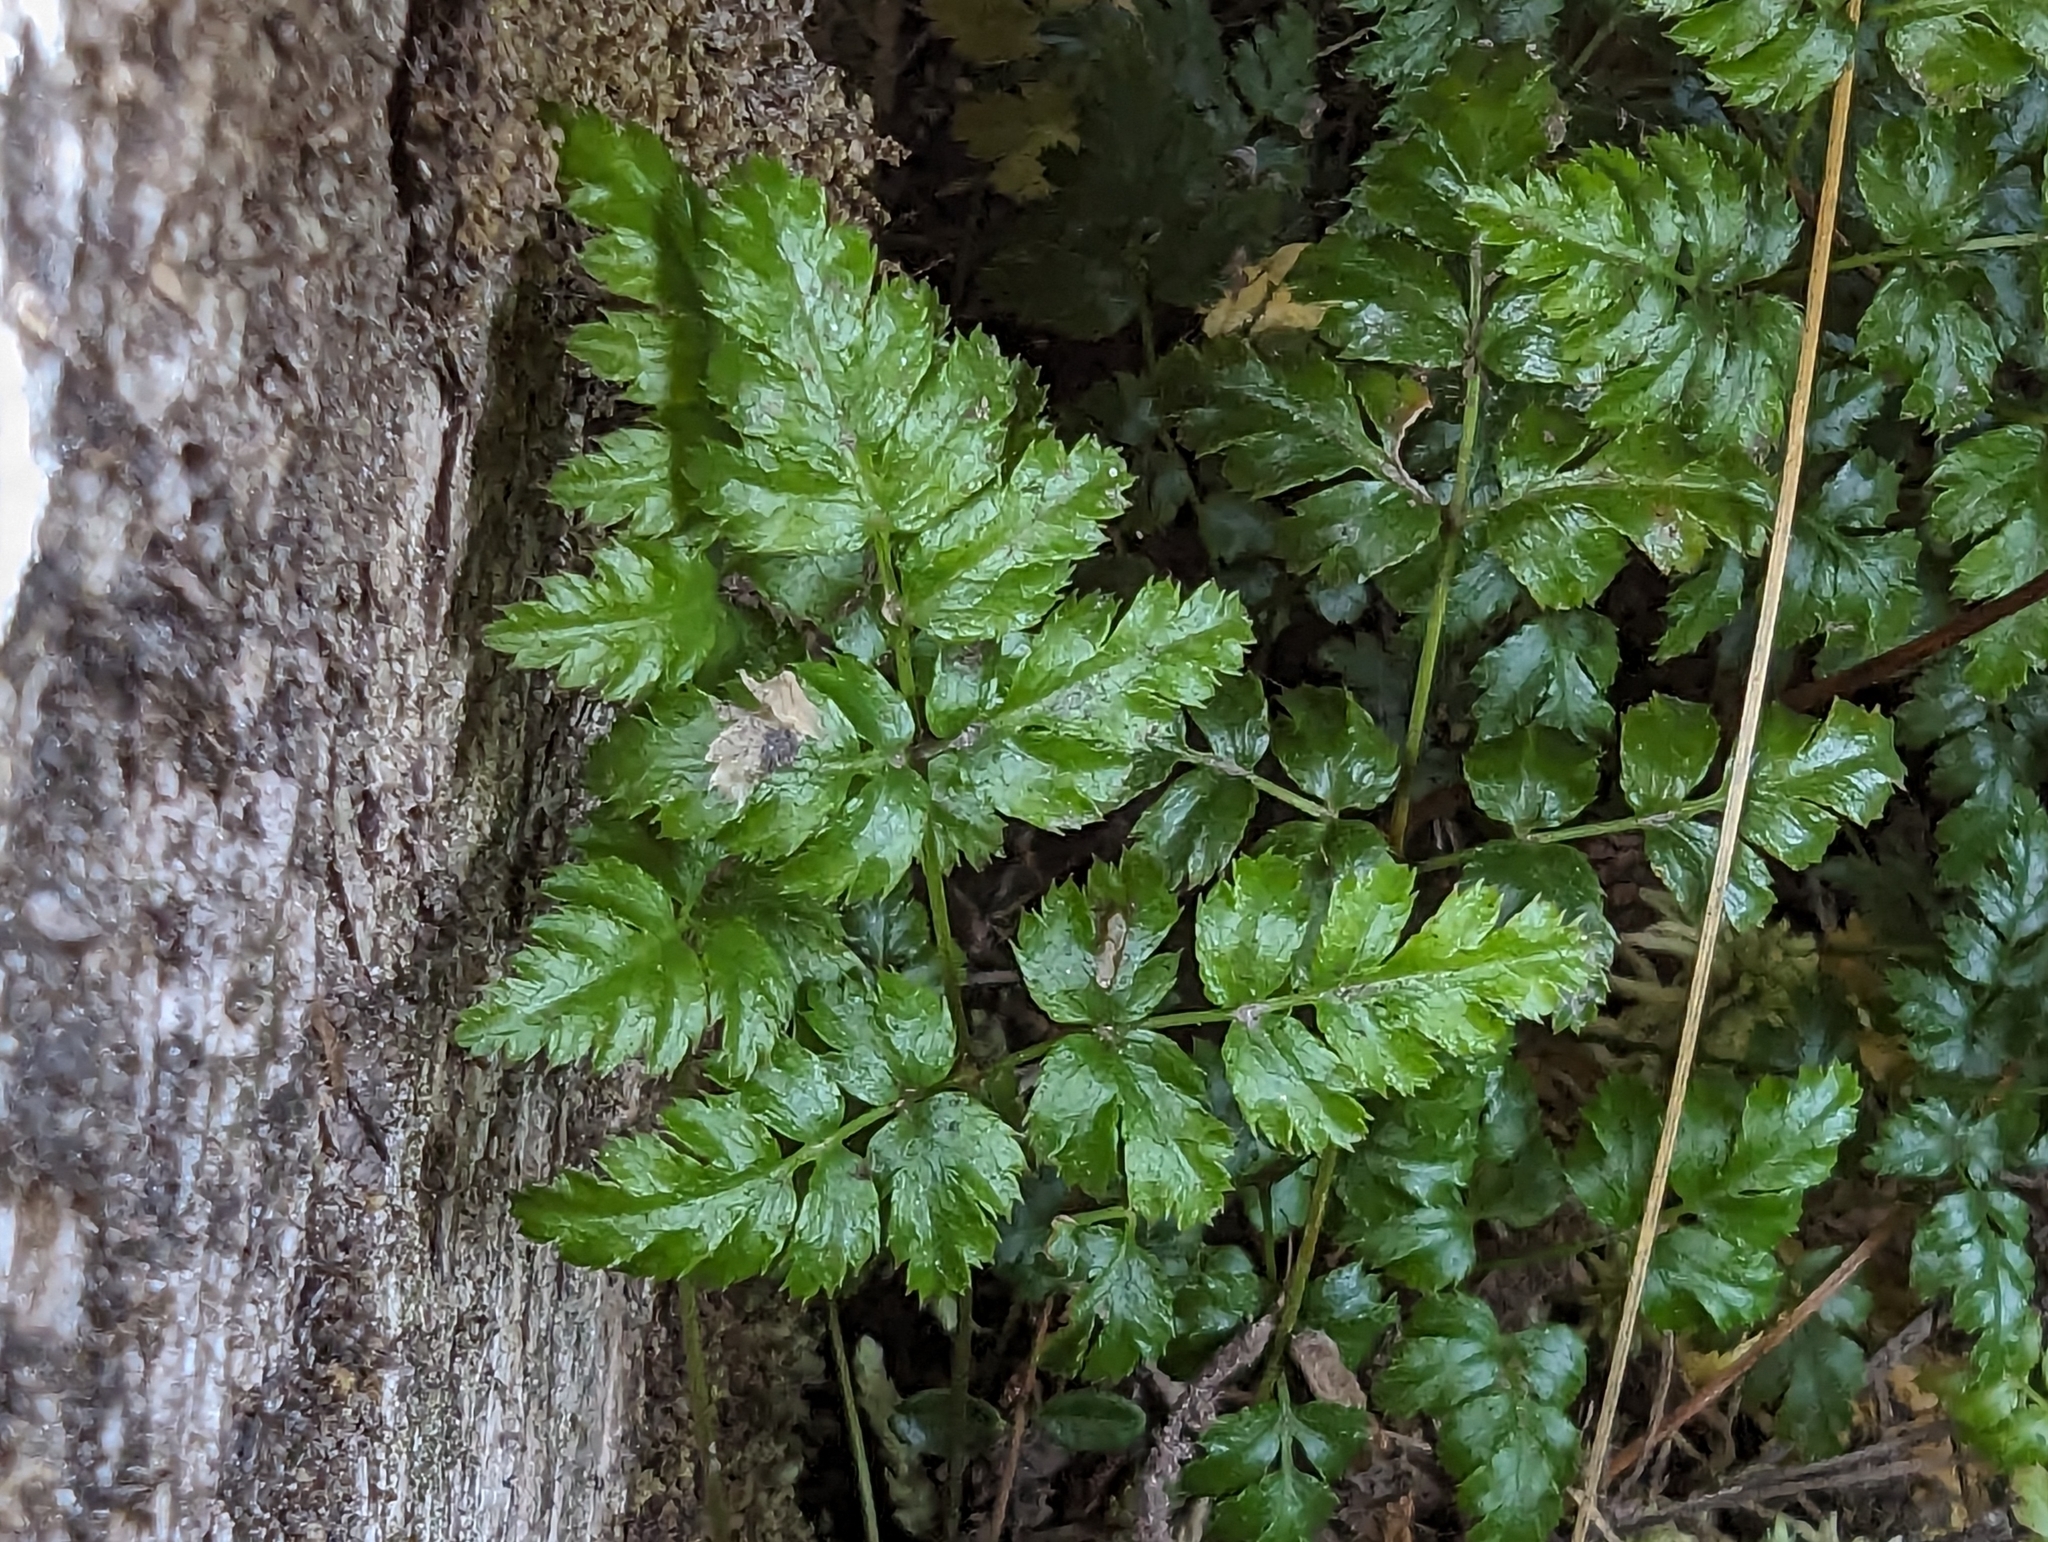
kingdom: Plantae
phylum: Tracheophyta
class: Magnoliopsida
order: Ranunculales
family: Ranunculaceae
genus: Coptis
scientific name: Coptis aspleniifolia
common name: Fern-leaved goldthread
